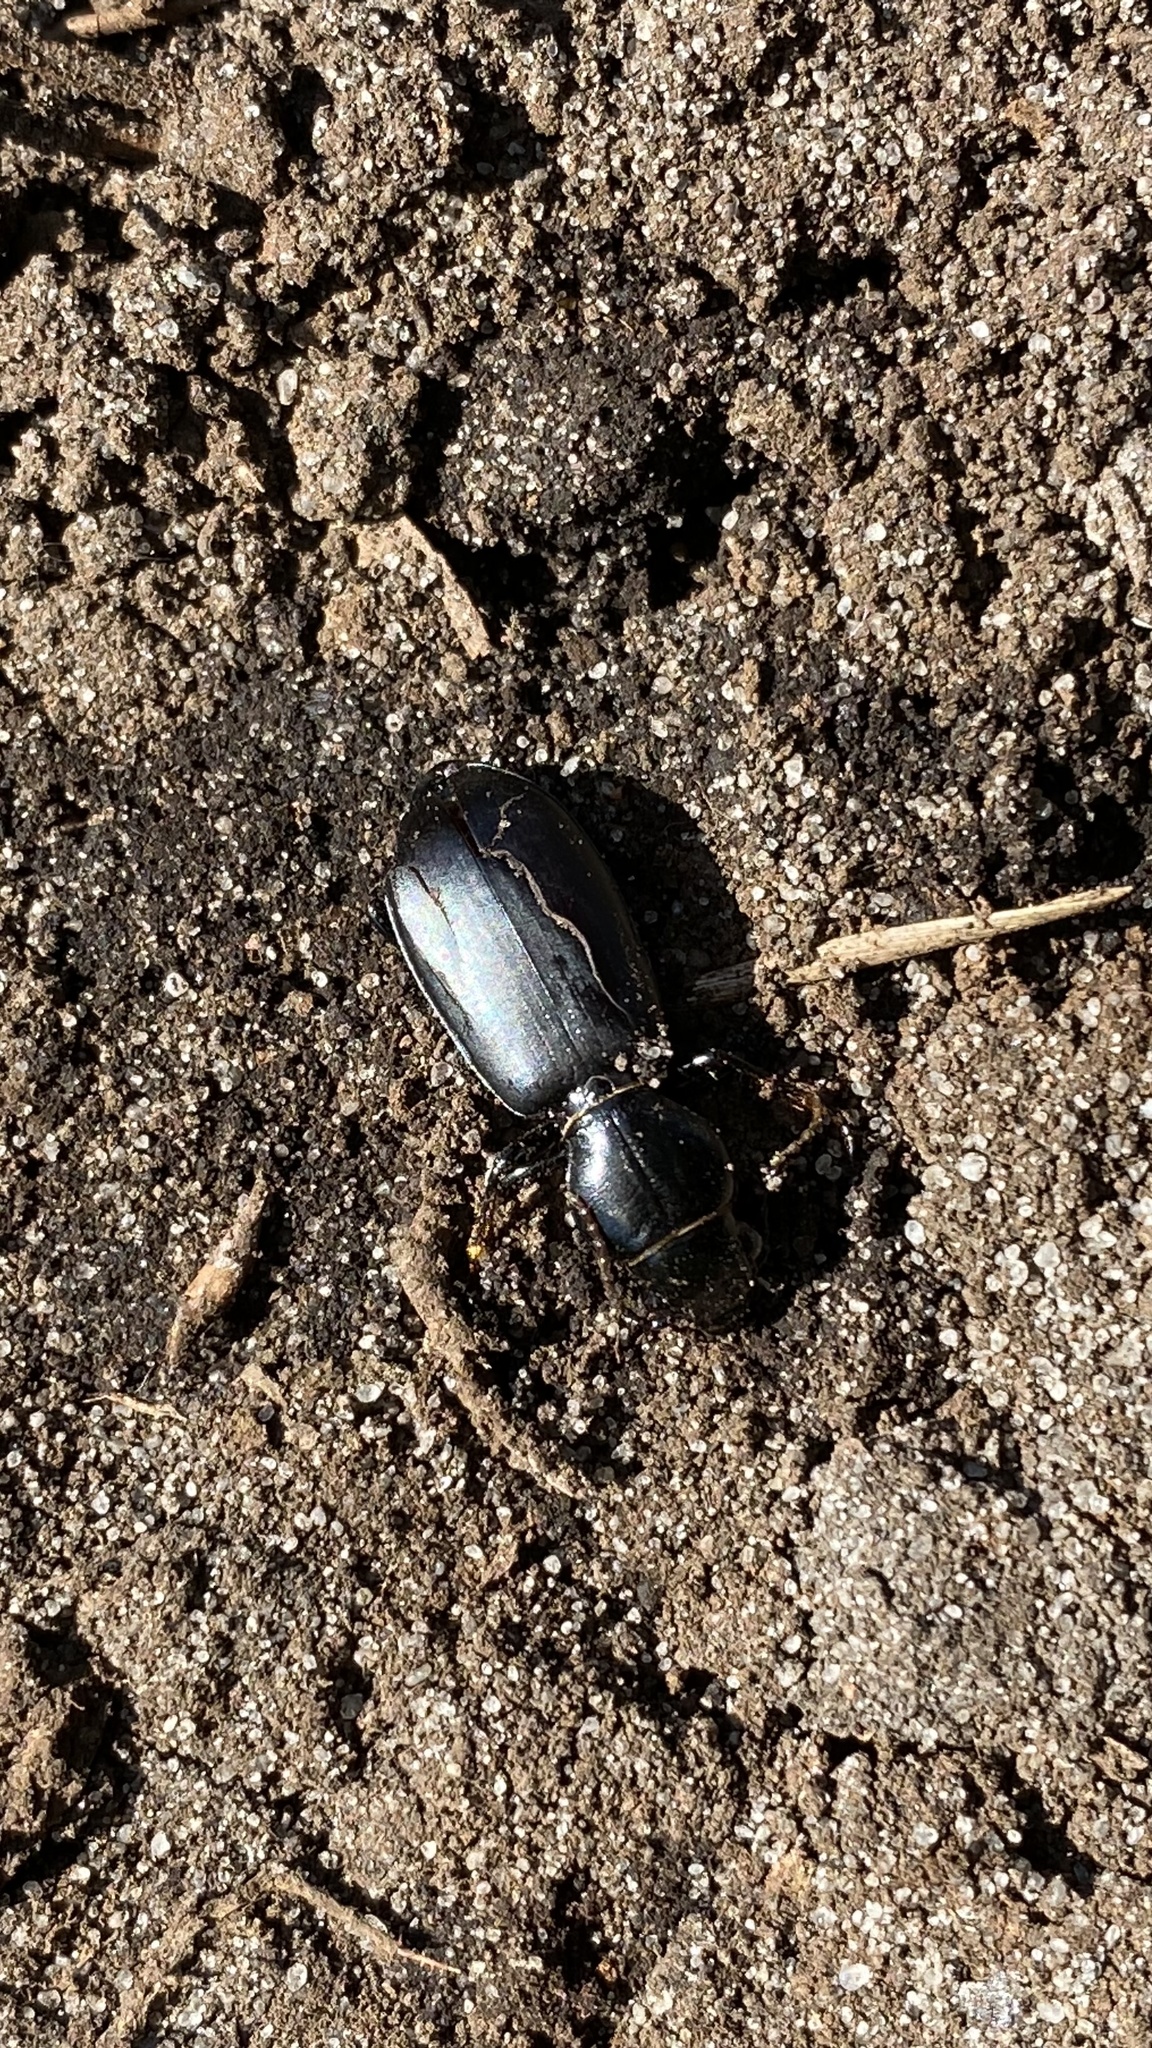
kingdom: Animalia
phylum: Arthropoda
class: Insecta
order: Coleoptera
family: Carabidae
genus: Broscus
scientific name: Broscus cephalotes
